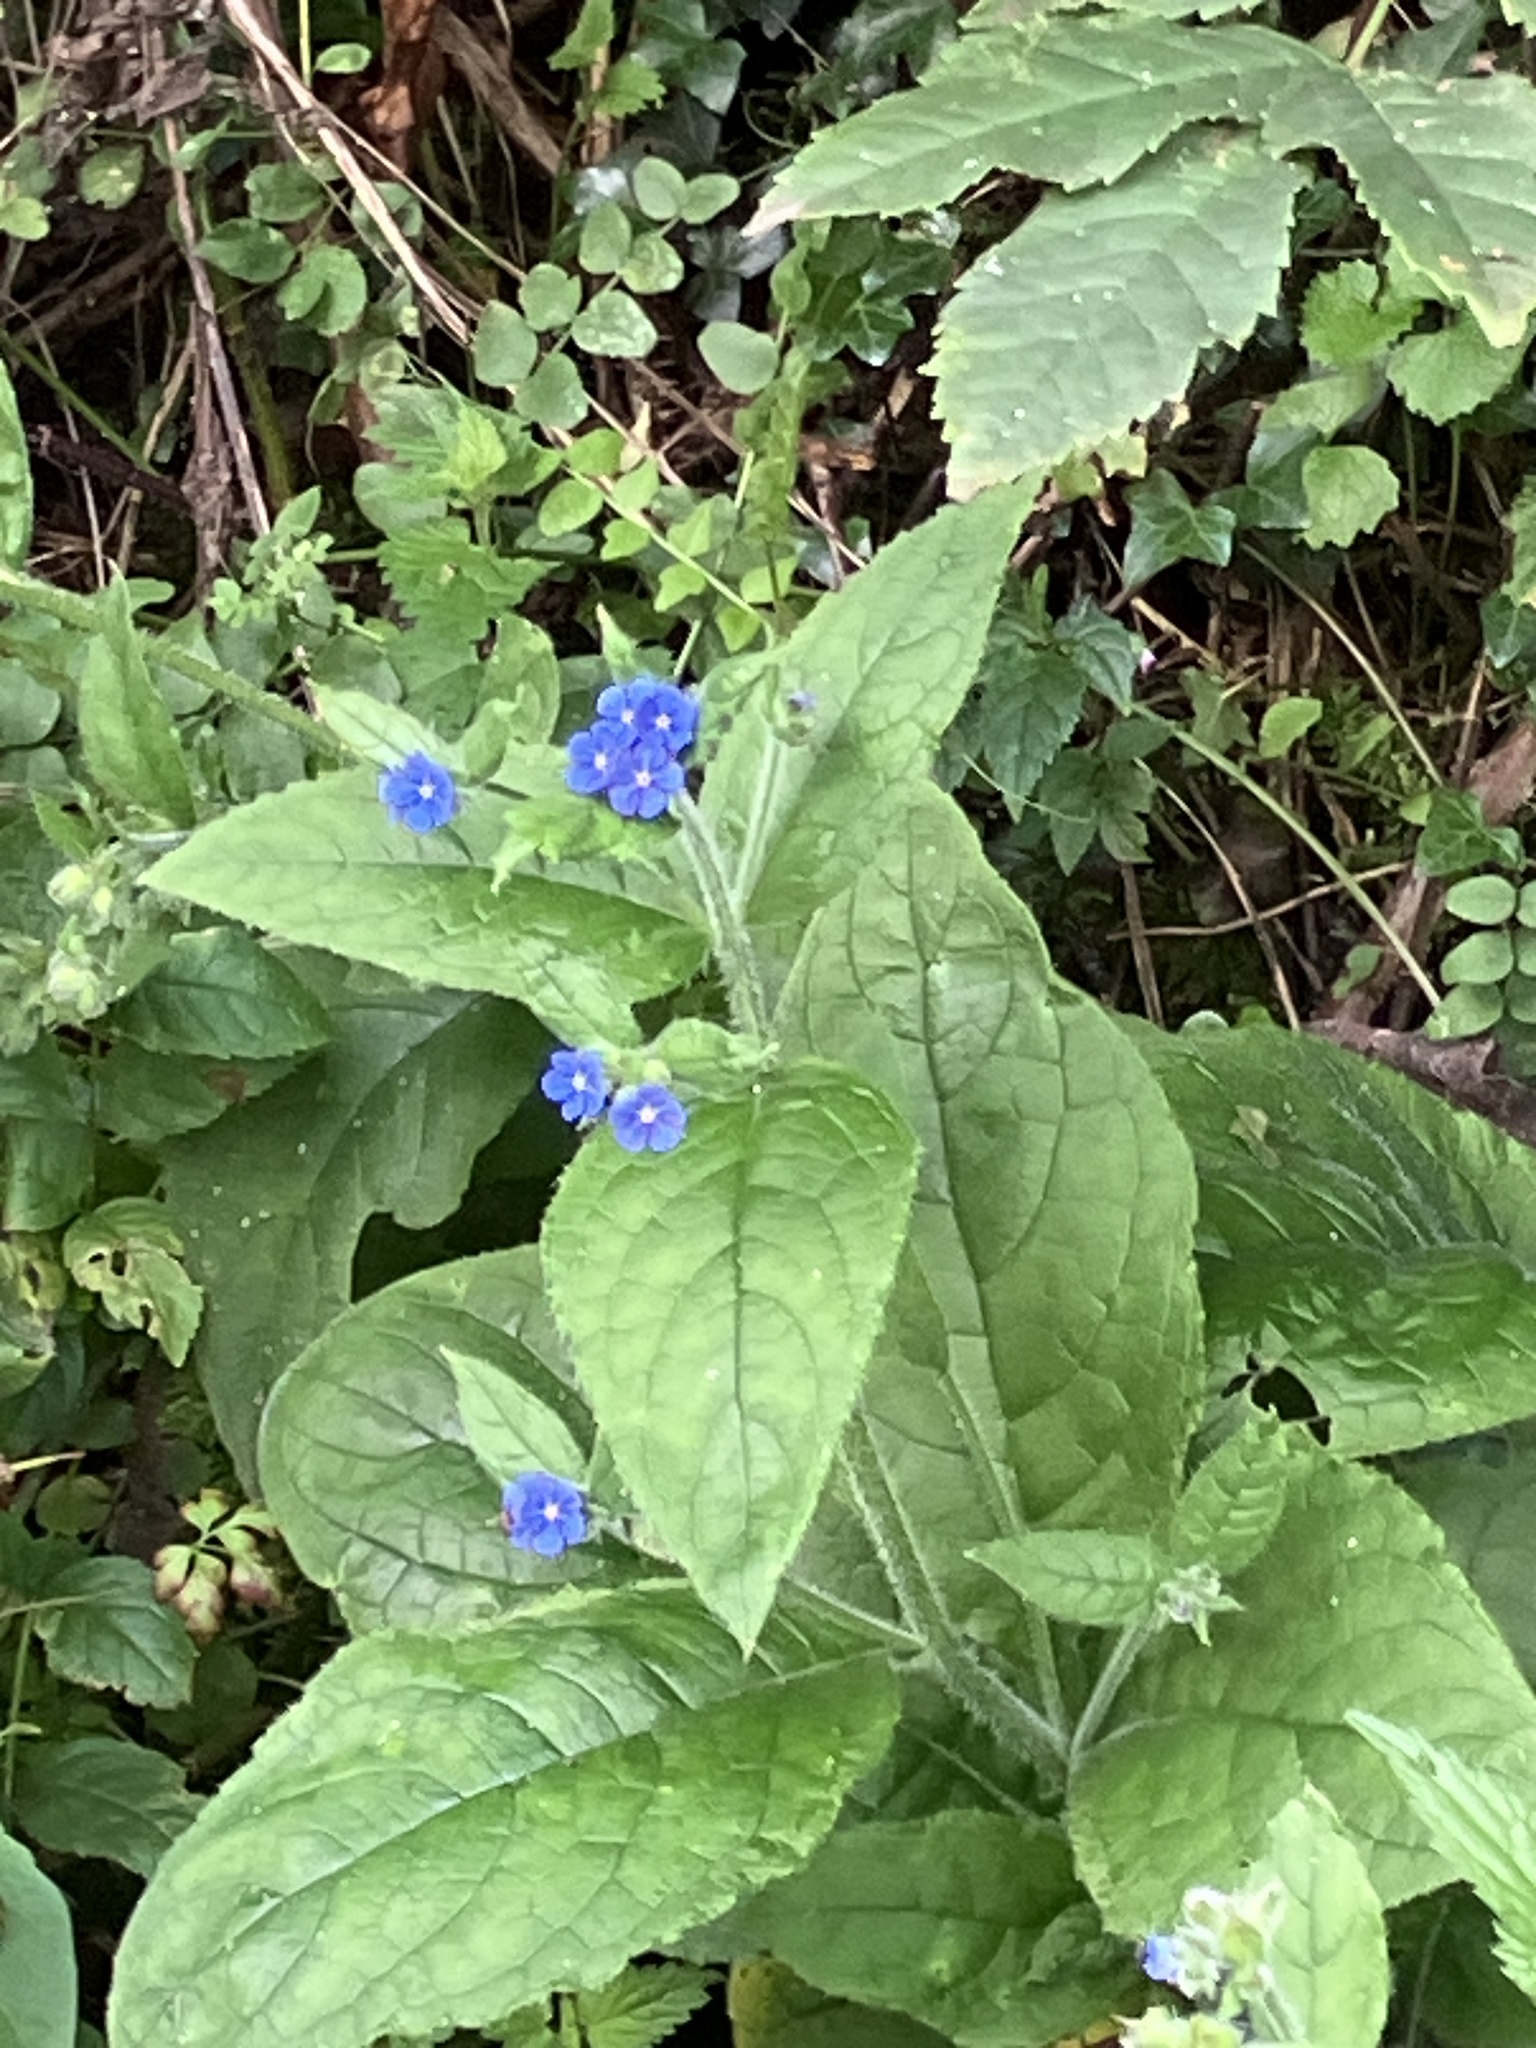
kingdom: Plantae
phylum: Tracheophyta
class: Magnoliopsida
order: Boraginales
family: Boraginaceae
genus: Pentaglottis
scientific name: Pentaglottis sempervirens
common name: Green alkanet
